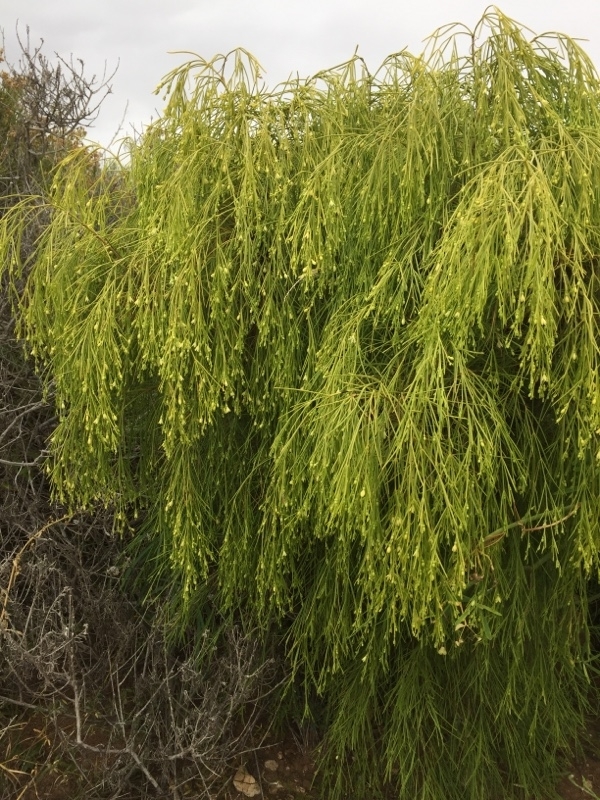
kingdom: Plantae
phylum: Tracheophyta
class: Magnoliopsida
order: Gentianales
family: Rubiaceae
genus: Plocama
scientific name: Plocama pendula
